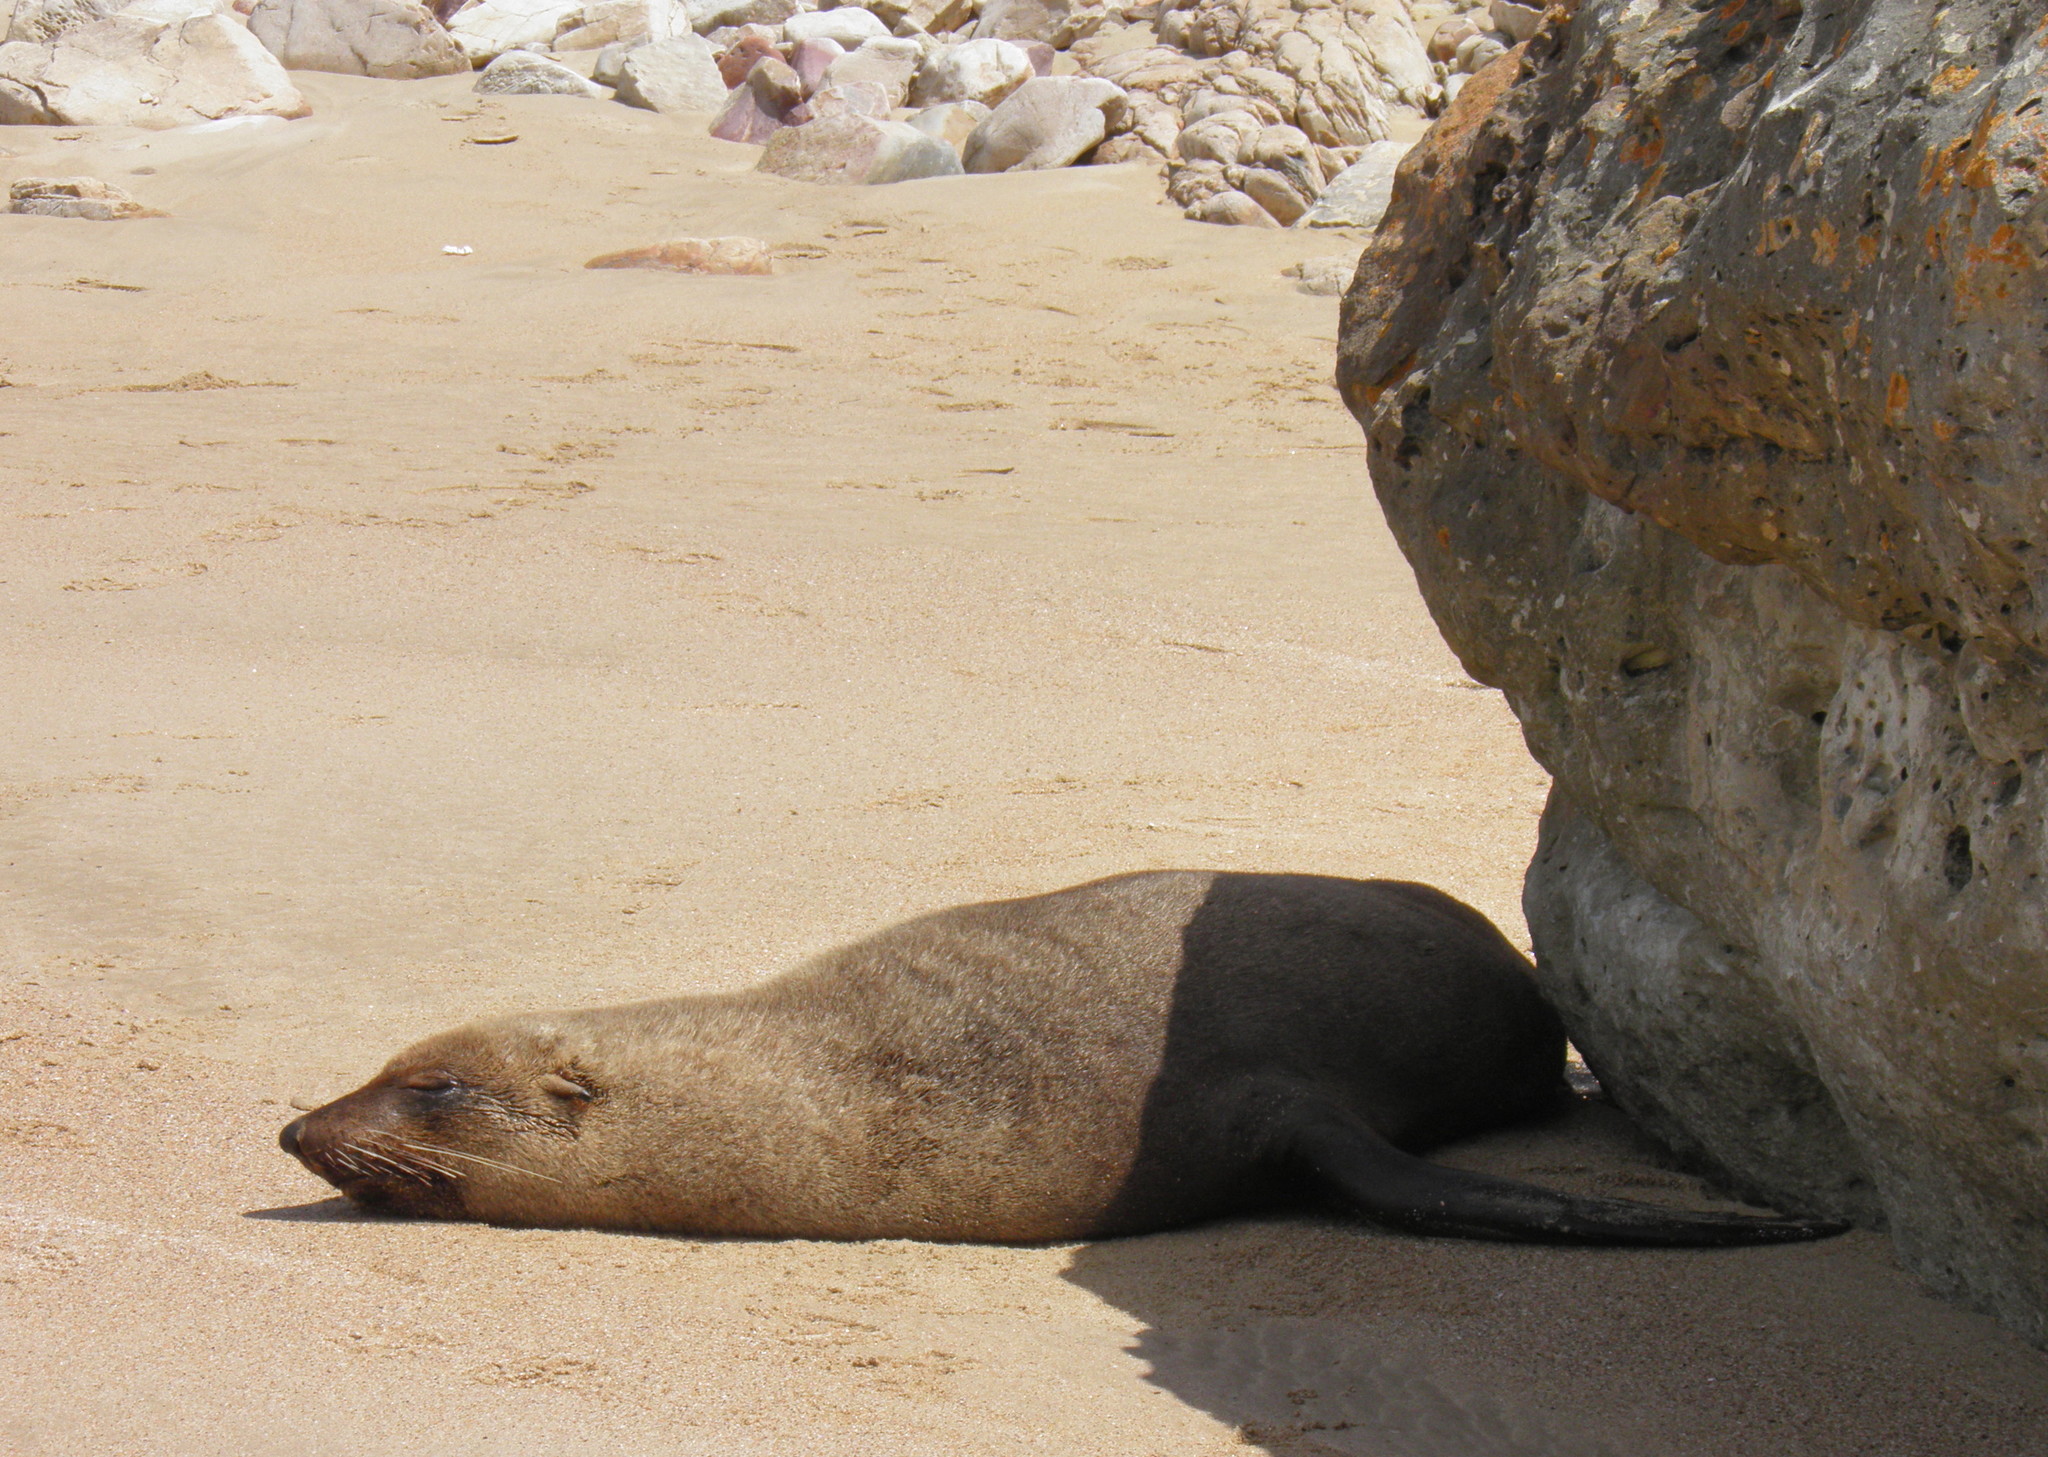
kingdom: Animalia
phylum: Chordata
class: Mammalia
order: Carnivora
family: Otariidae
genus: Arctocephalus
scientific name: Arctocephalus pusillus
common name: Brown fur seal
